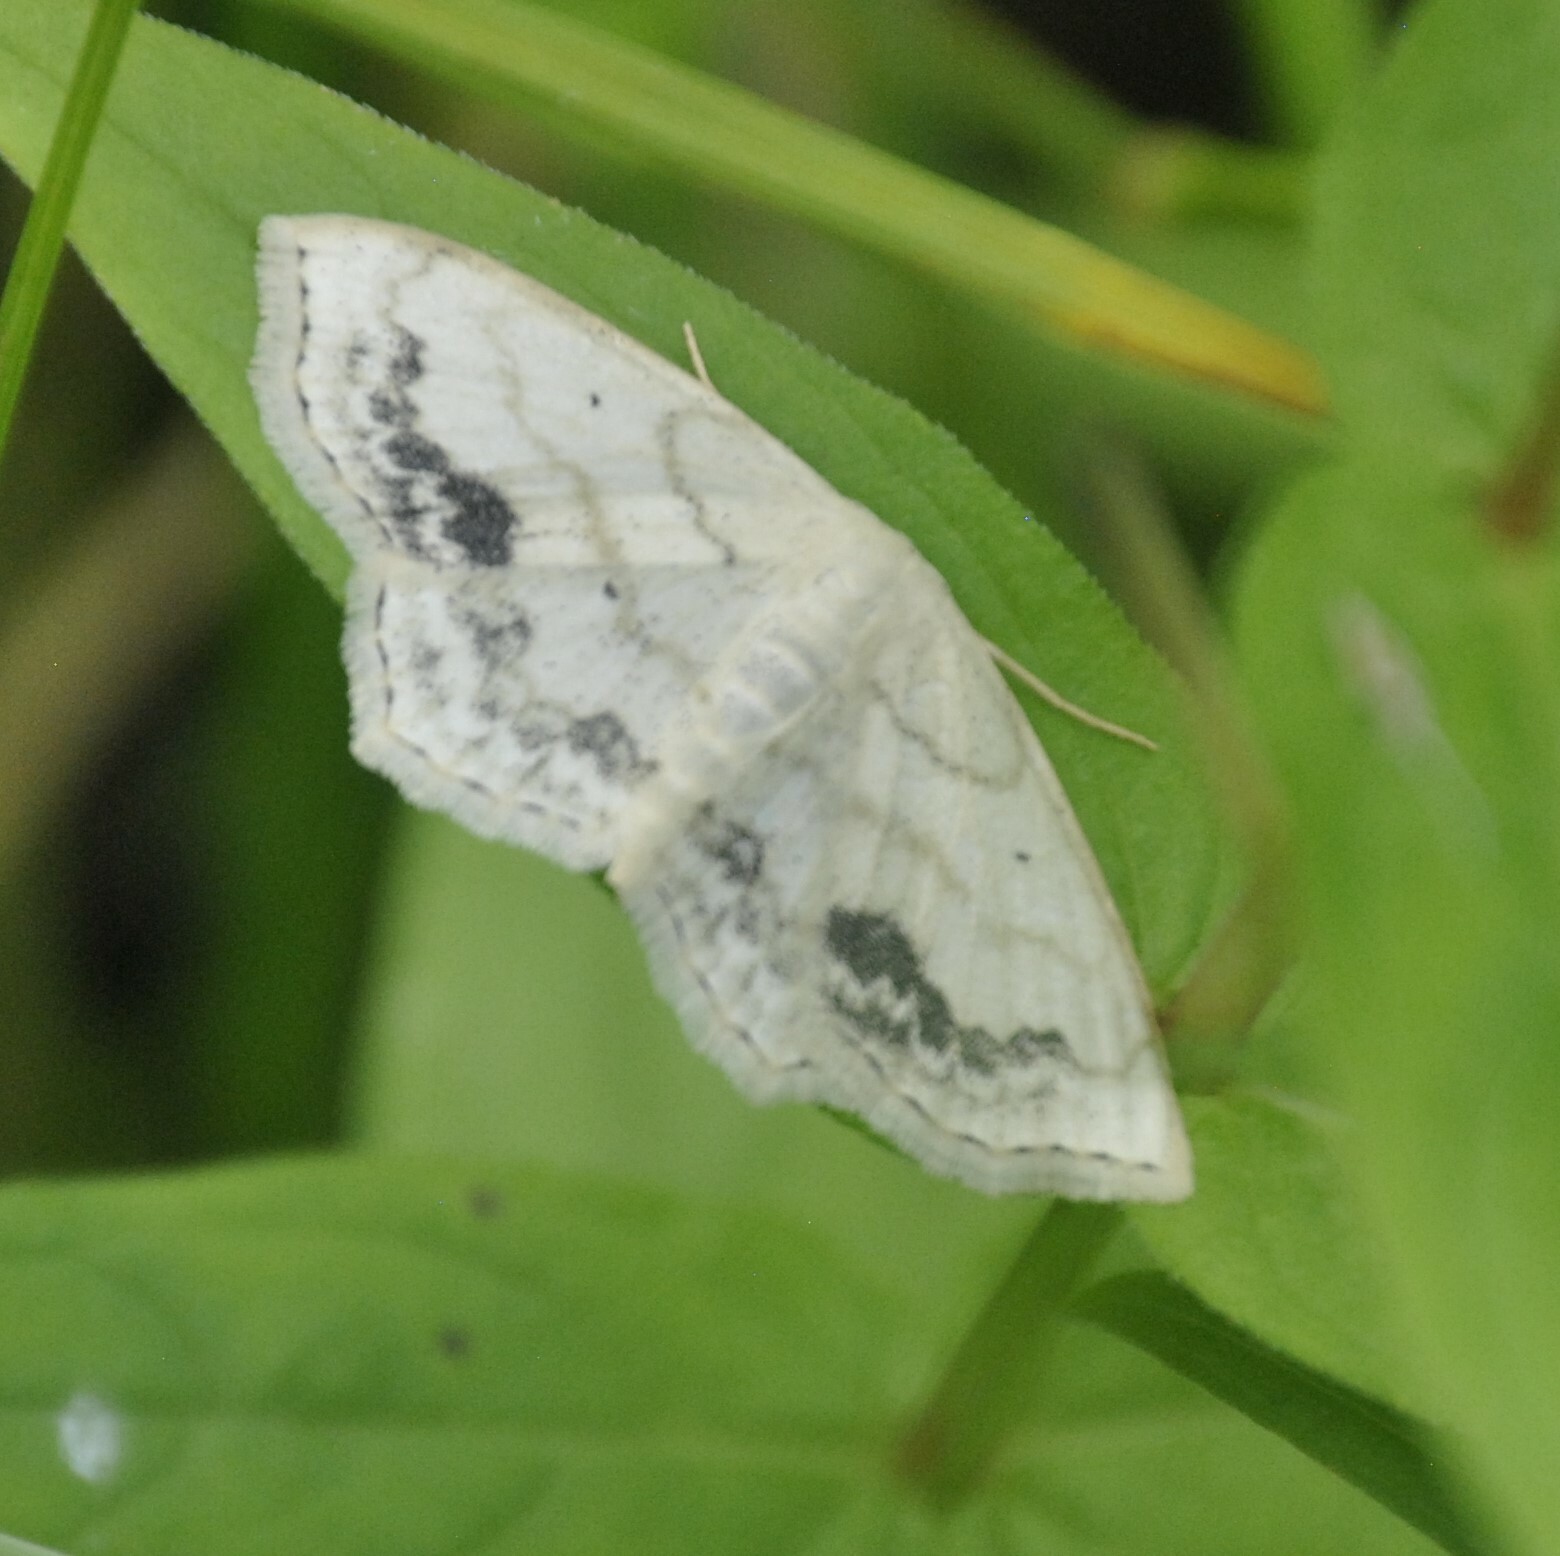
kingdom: Animalia
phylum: Arthropoda
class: Insecta
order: Lepidoptera
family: Geometridae
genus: Scopula
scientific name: Scopula limboundata
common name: Large lace border
